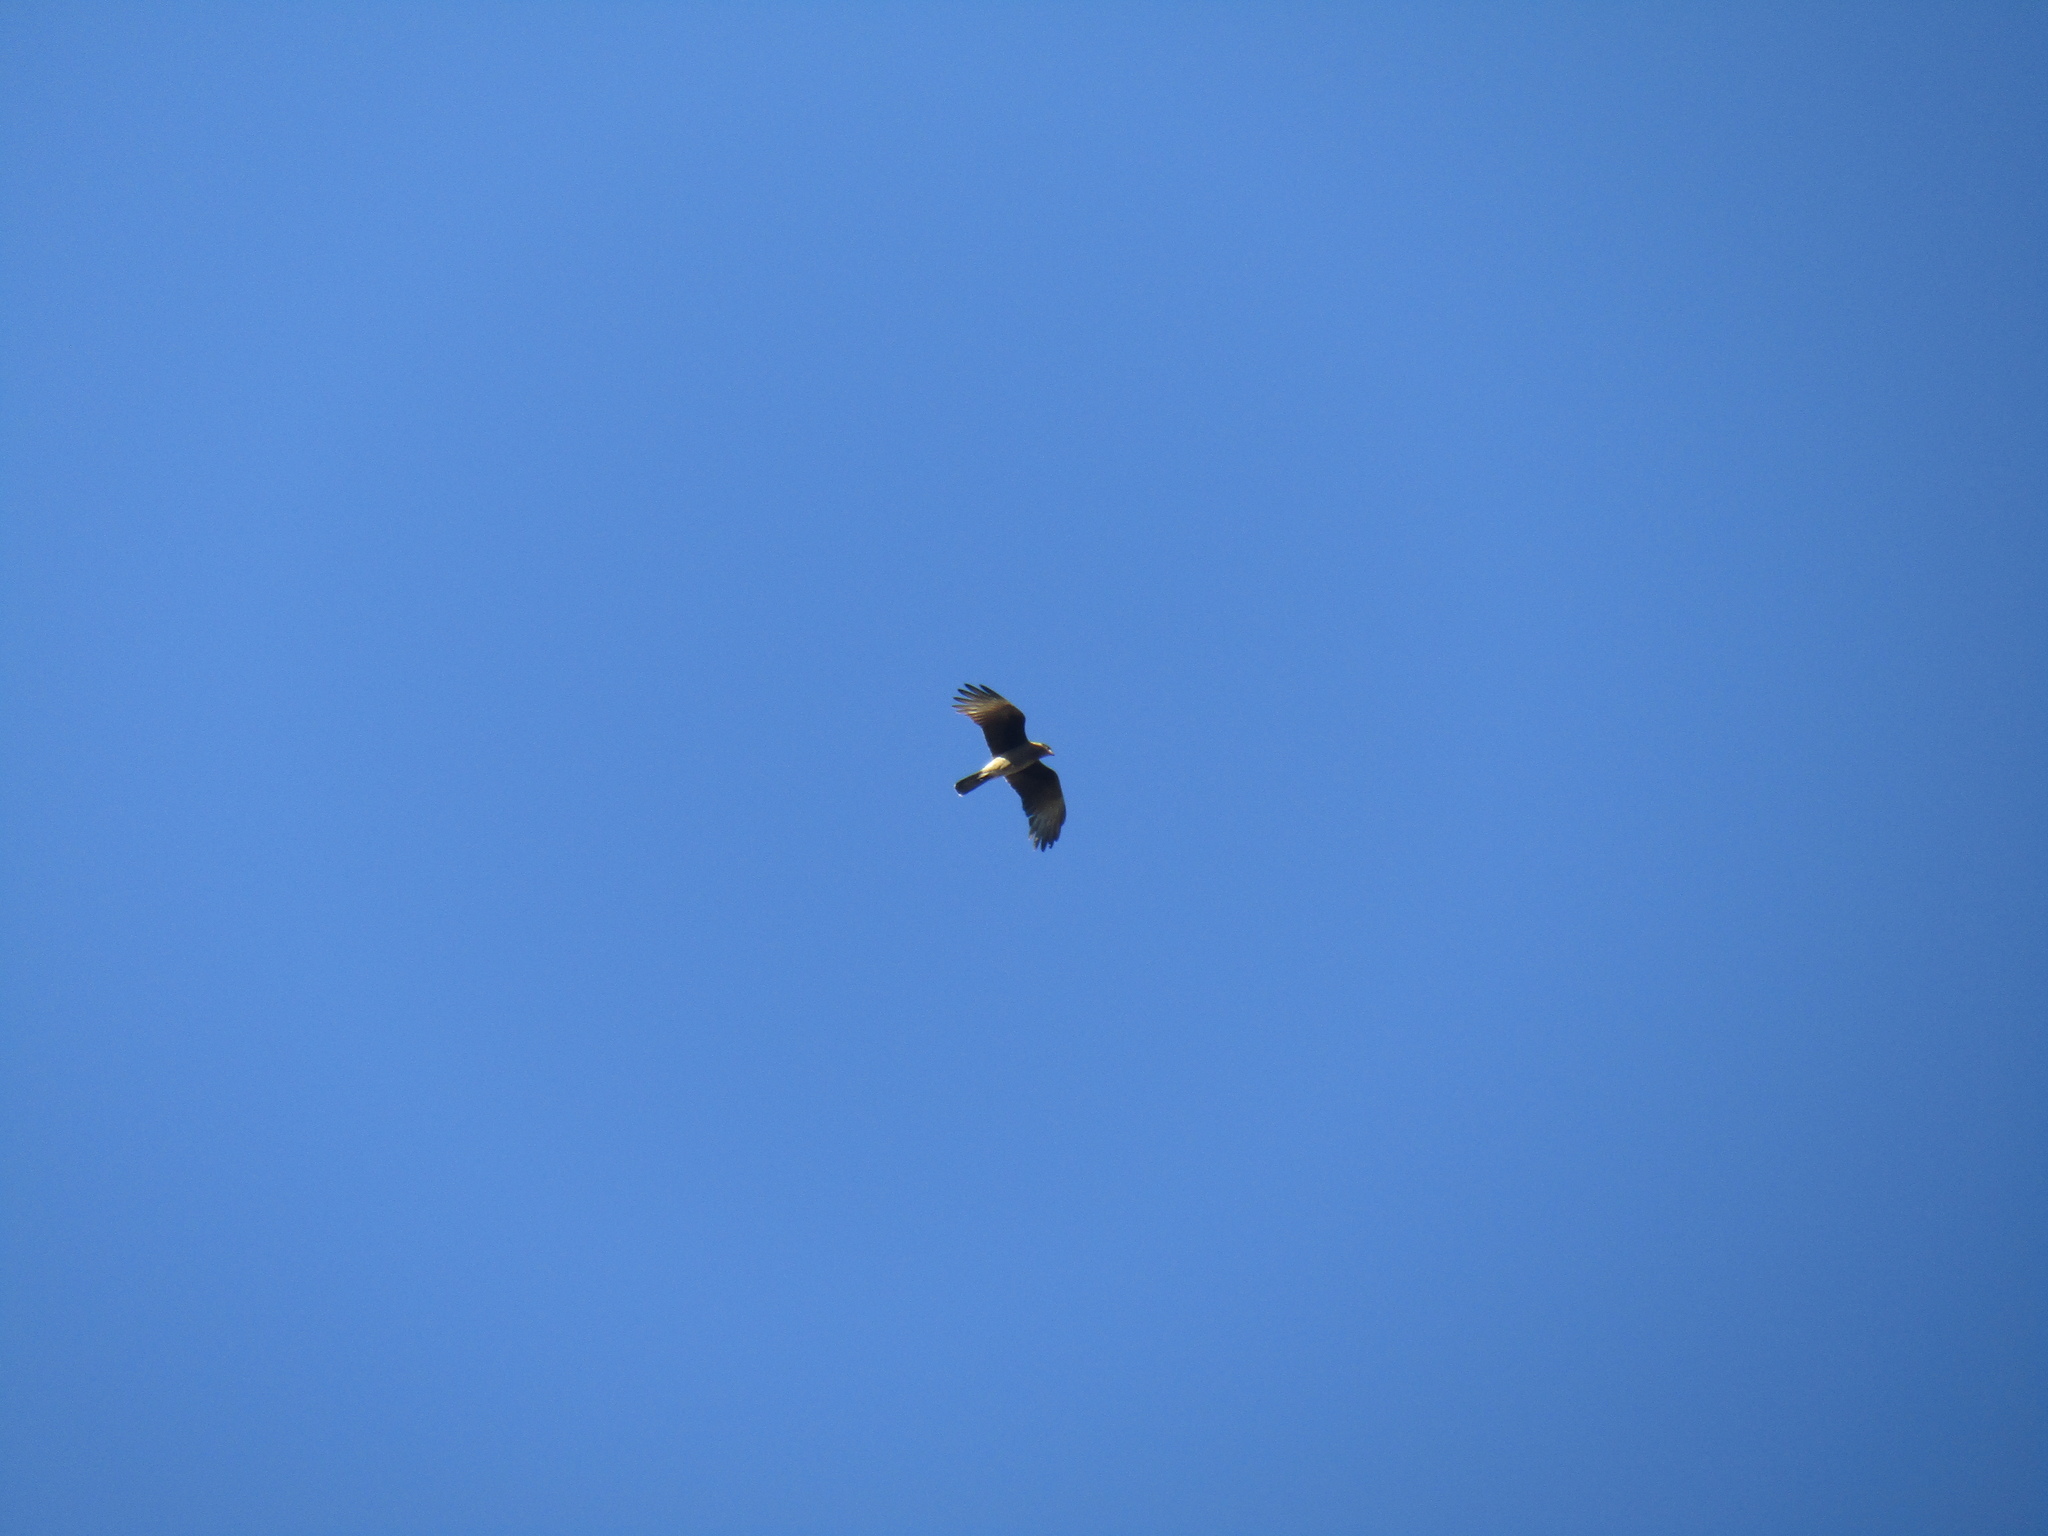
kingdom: Animalia
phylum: Chordata
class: Aves
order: Falconiformes
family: Falconidae
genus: Daptrius
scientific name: Daptrius
